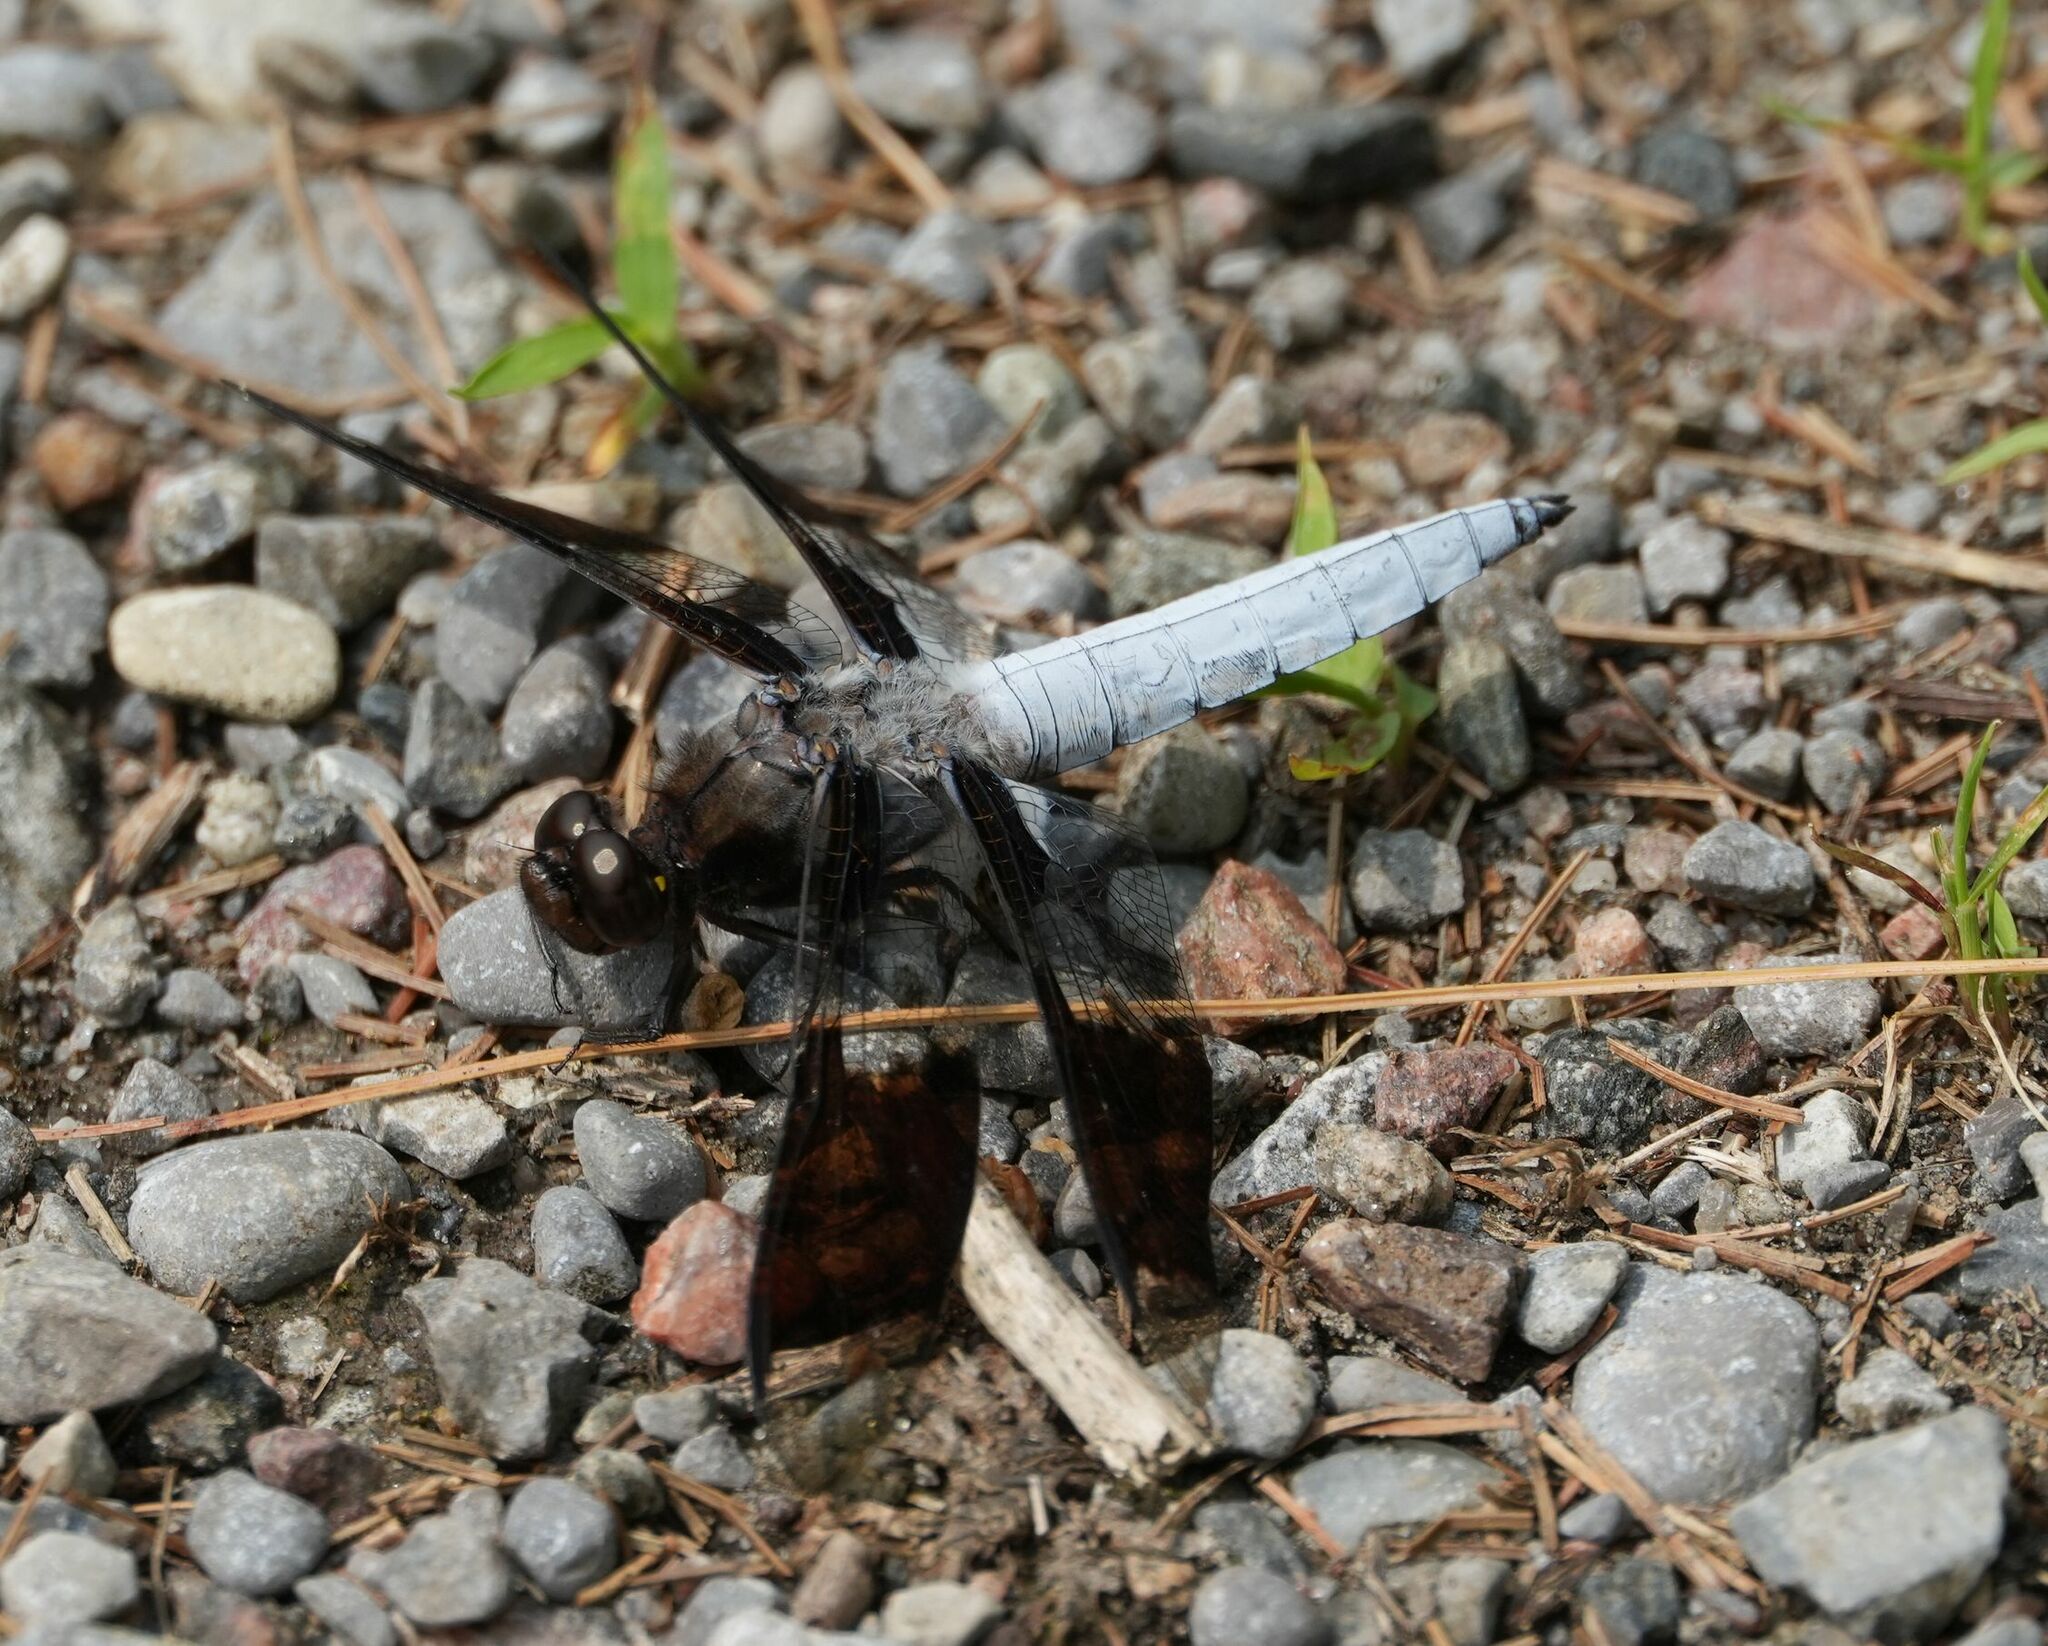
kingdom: Animalia
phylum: Arthropoda
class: Insecta
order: Odonata
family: Libellulidae
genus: Plathemis
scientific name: Plathemis lydia
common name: Common whitetail
